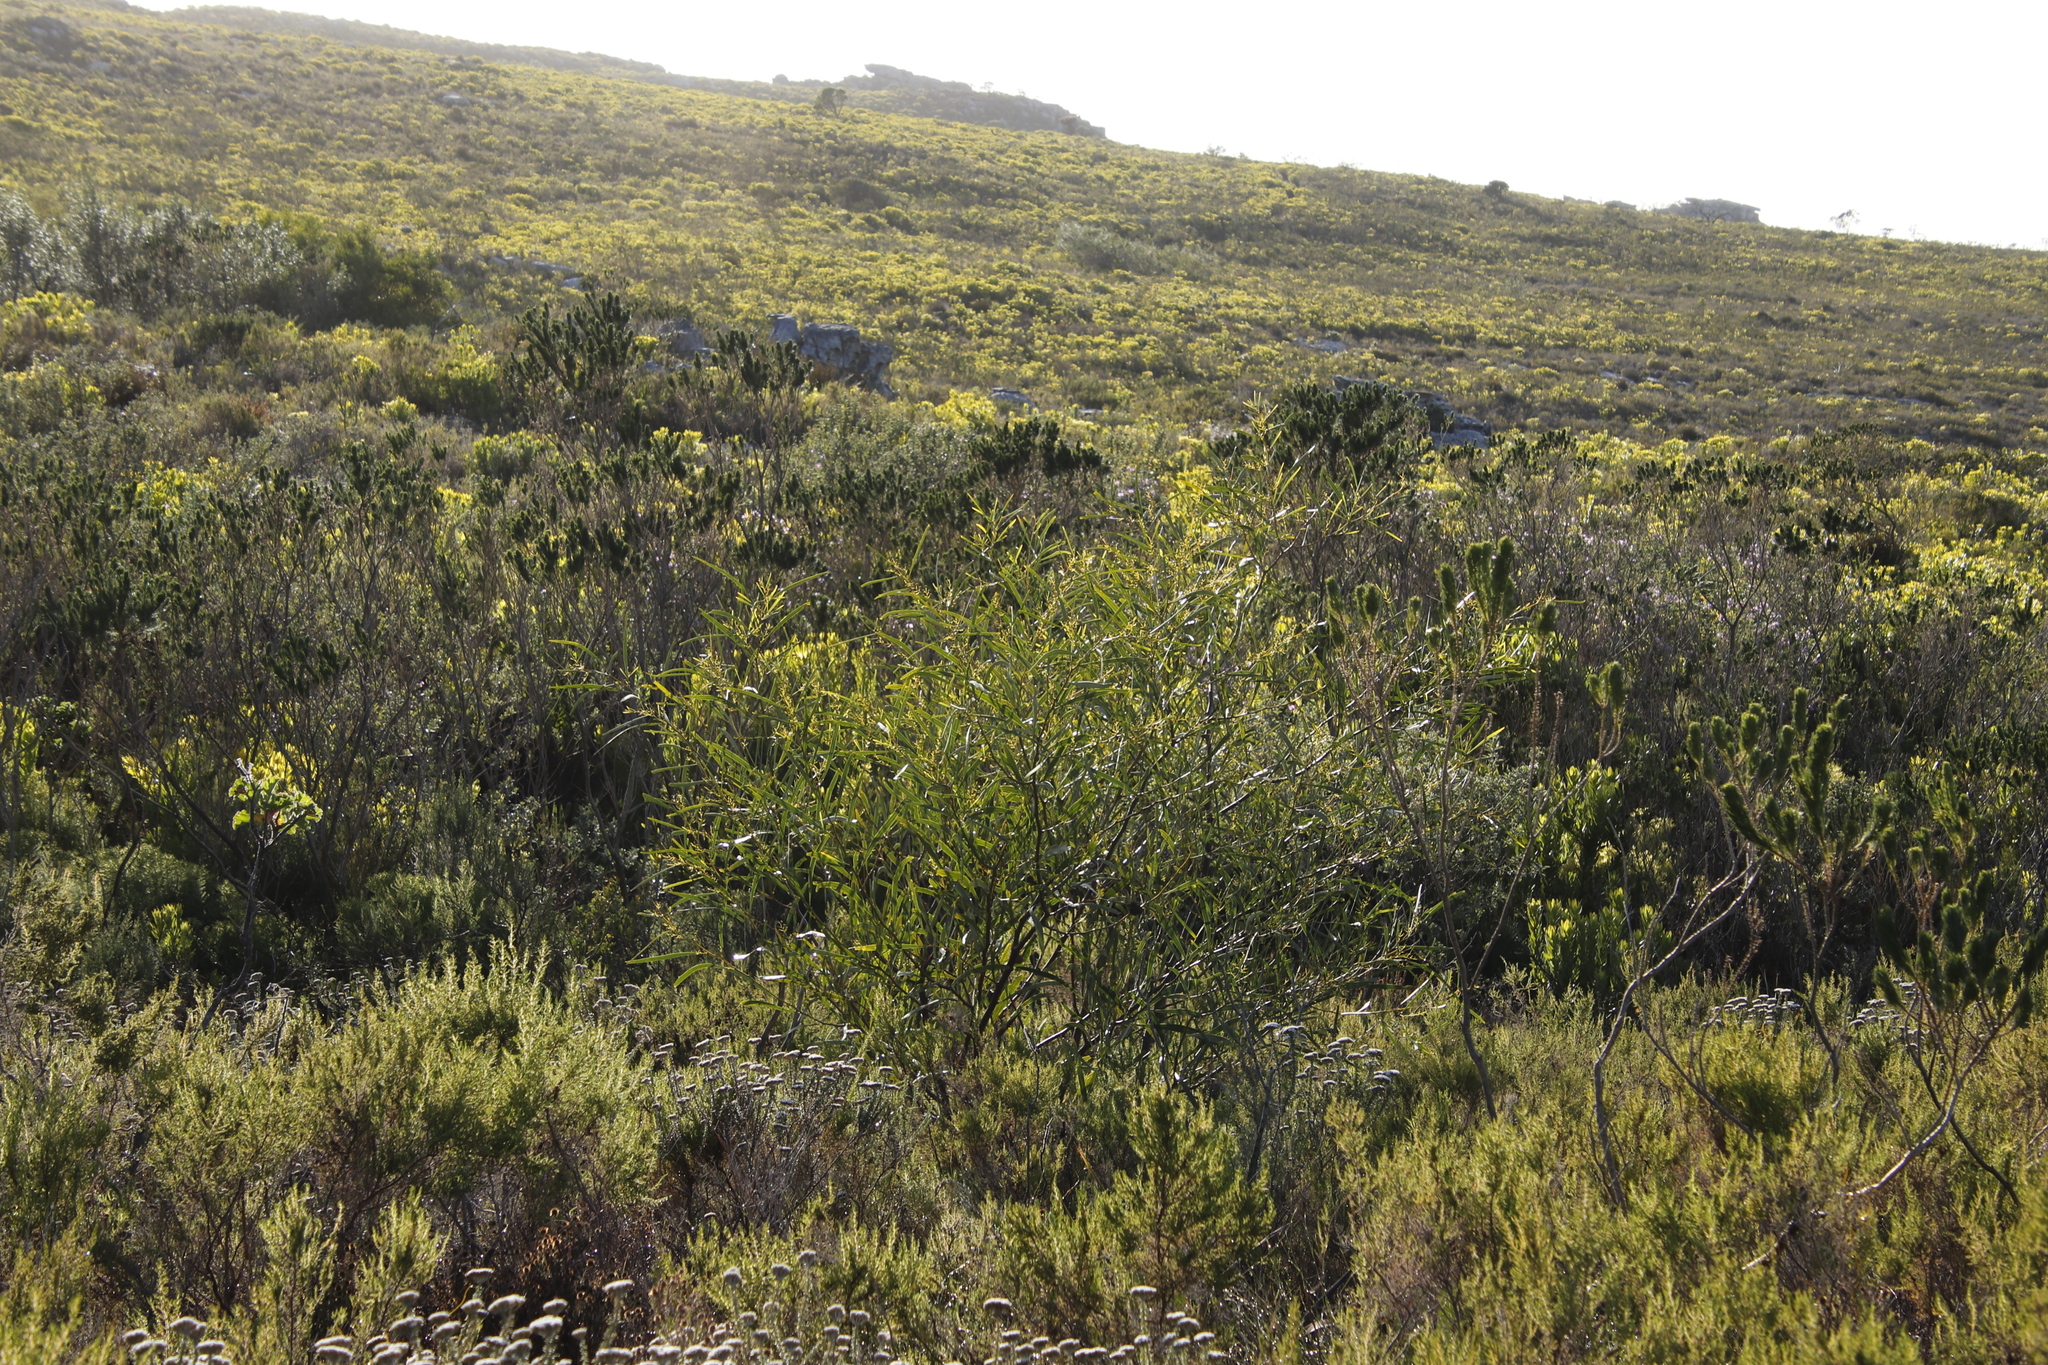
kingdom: Plantae
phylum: Tracheophyta
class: Magnoliopsida
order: Fabales
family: Fabaceae
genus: Acacia
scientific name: Acacia saligna
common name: Orange wattle
